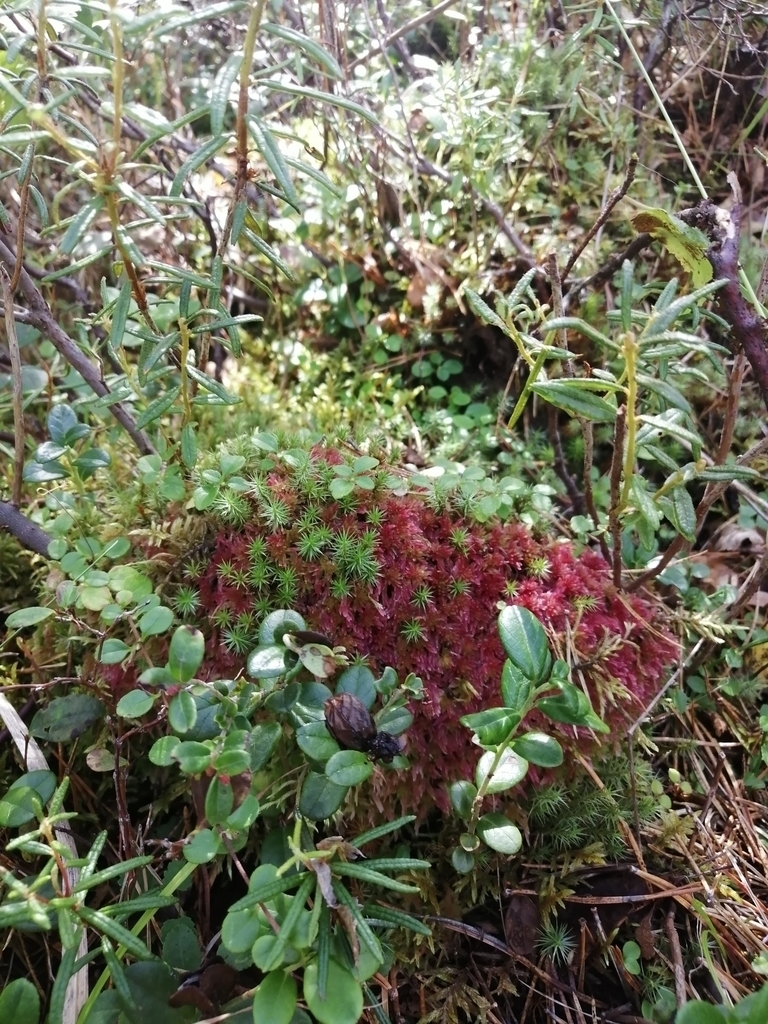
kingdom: Plantae
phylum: Tracheophyta
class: Magnoliopsida
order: Ericales
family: Ericaceae
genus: Vaccinium
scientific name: Vaccinium vitis-idaea
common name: Cowberry
